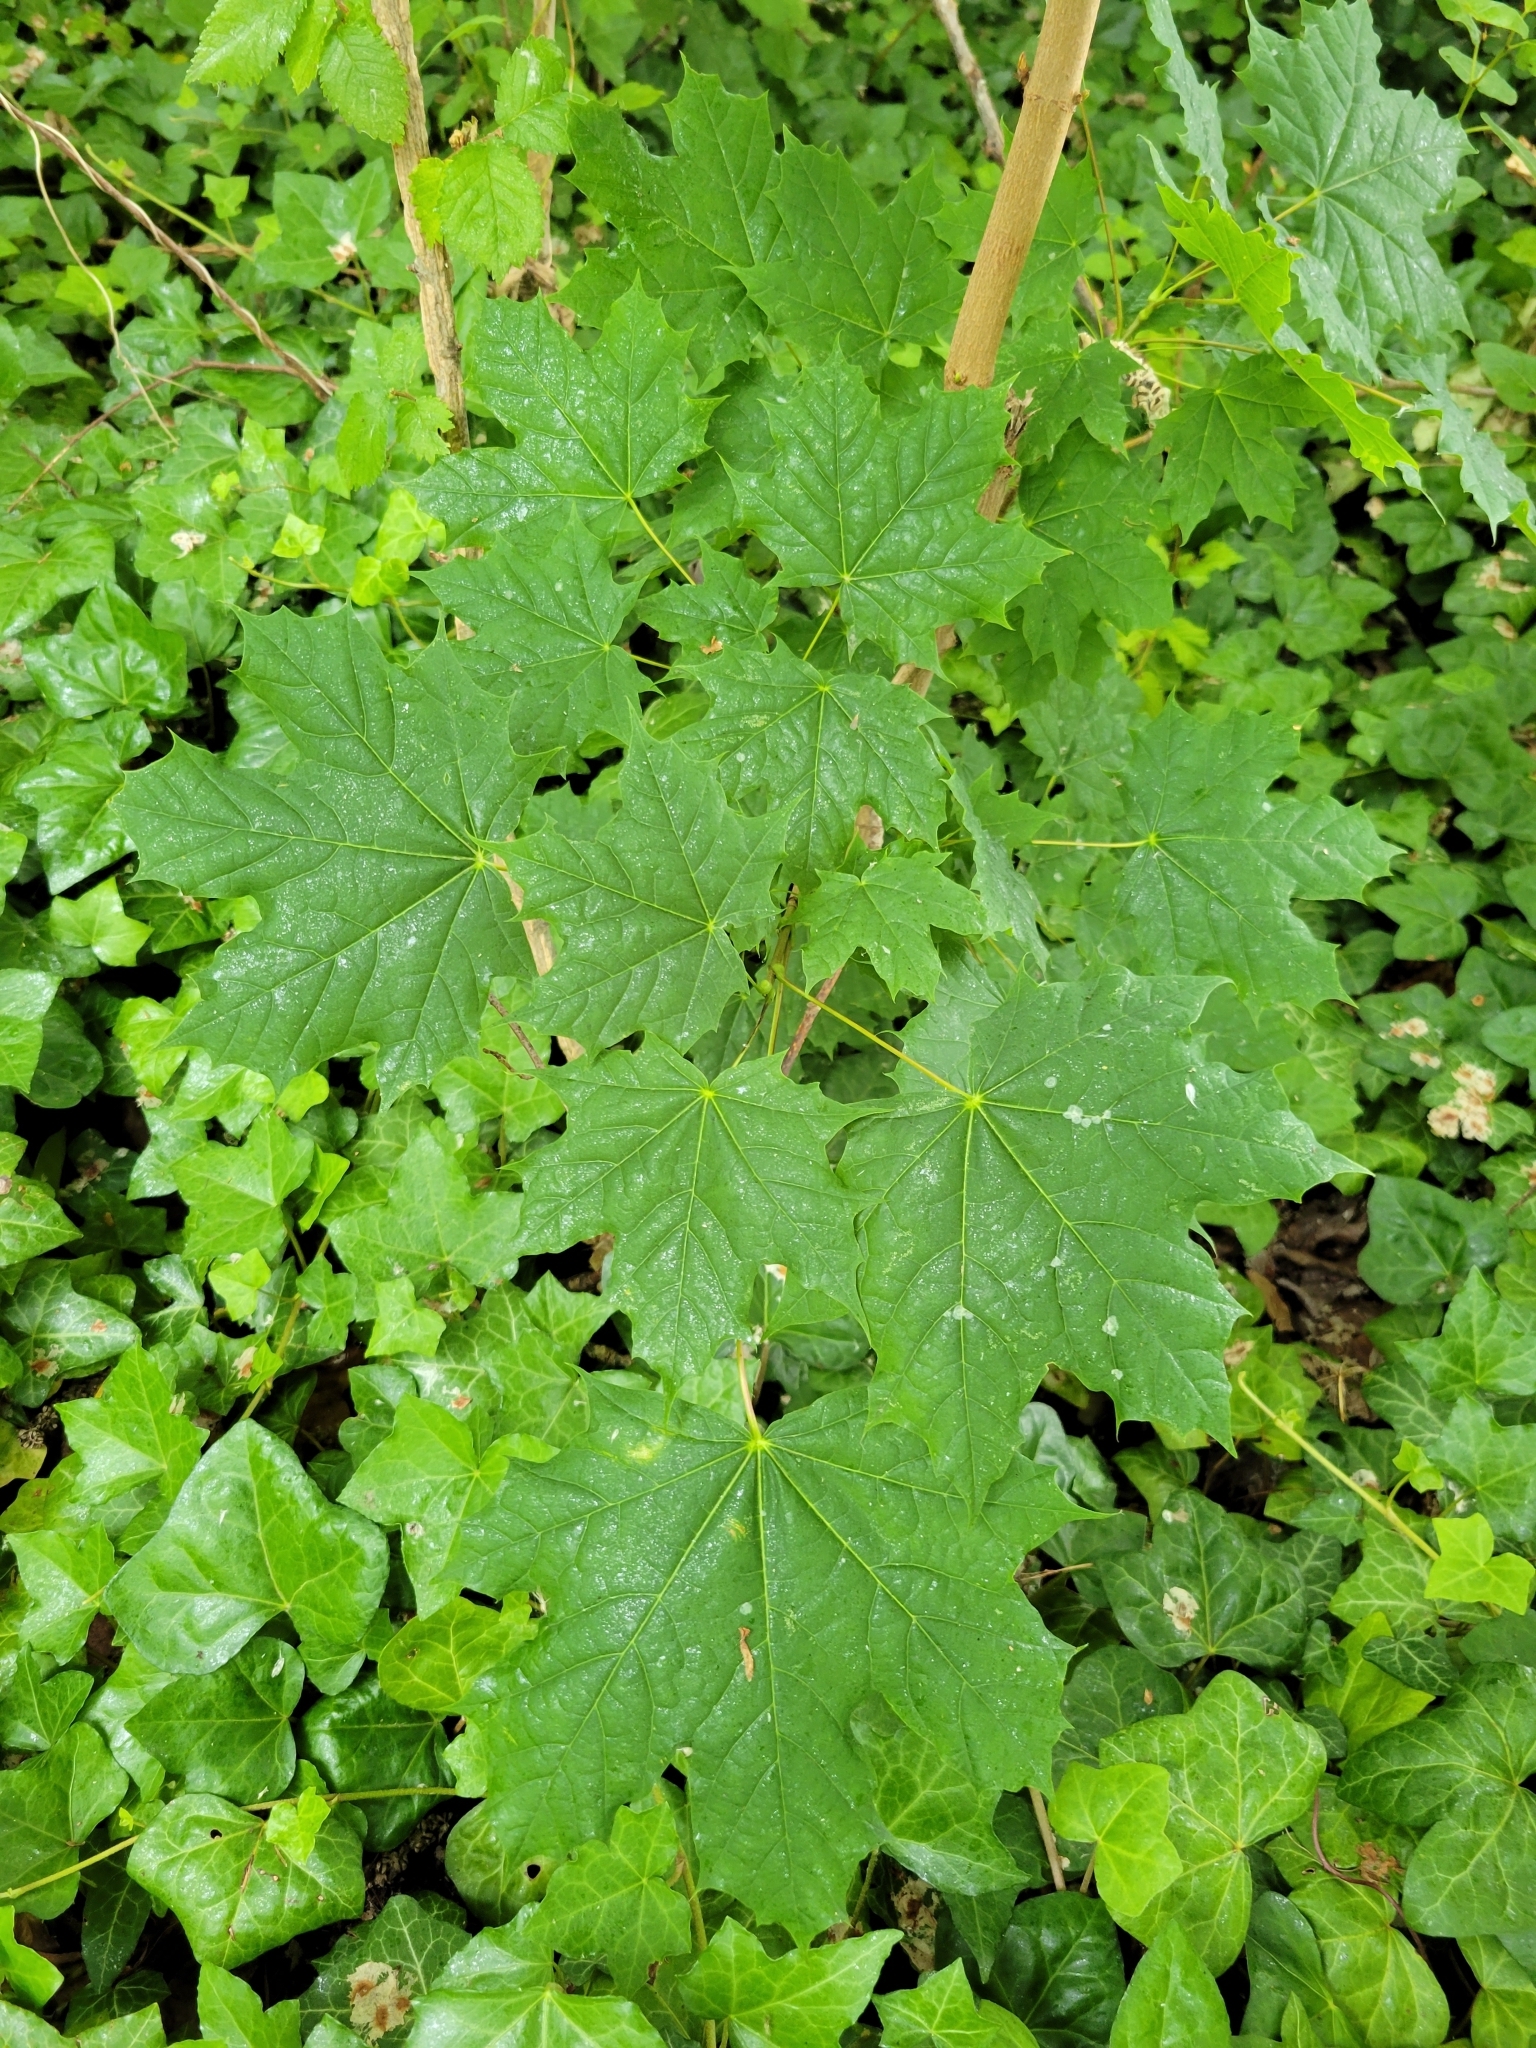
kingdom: Plantae
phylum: Tracheophyta
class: Magnoliopsida
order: Sapindales
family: Sapindaceae
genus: Acer
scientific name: Acer platanoides
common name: Norway maple
